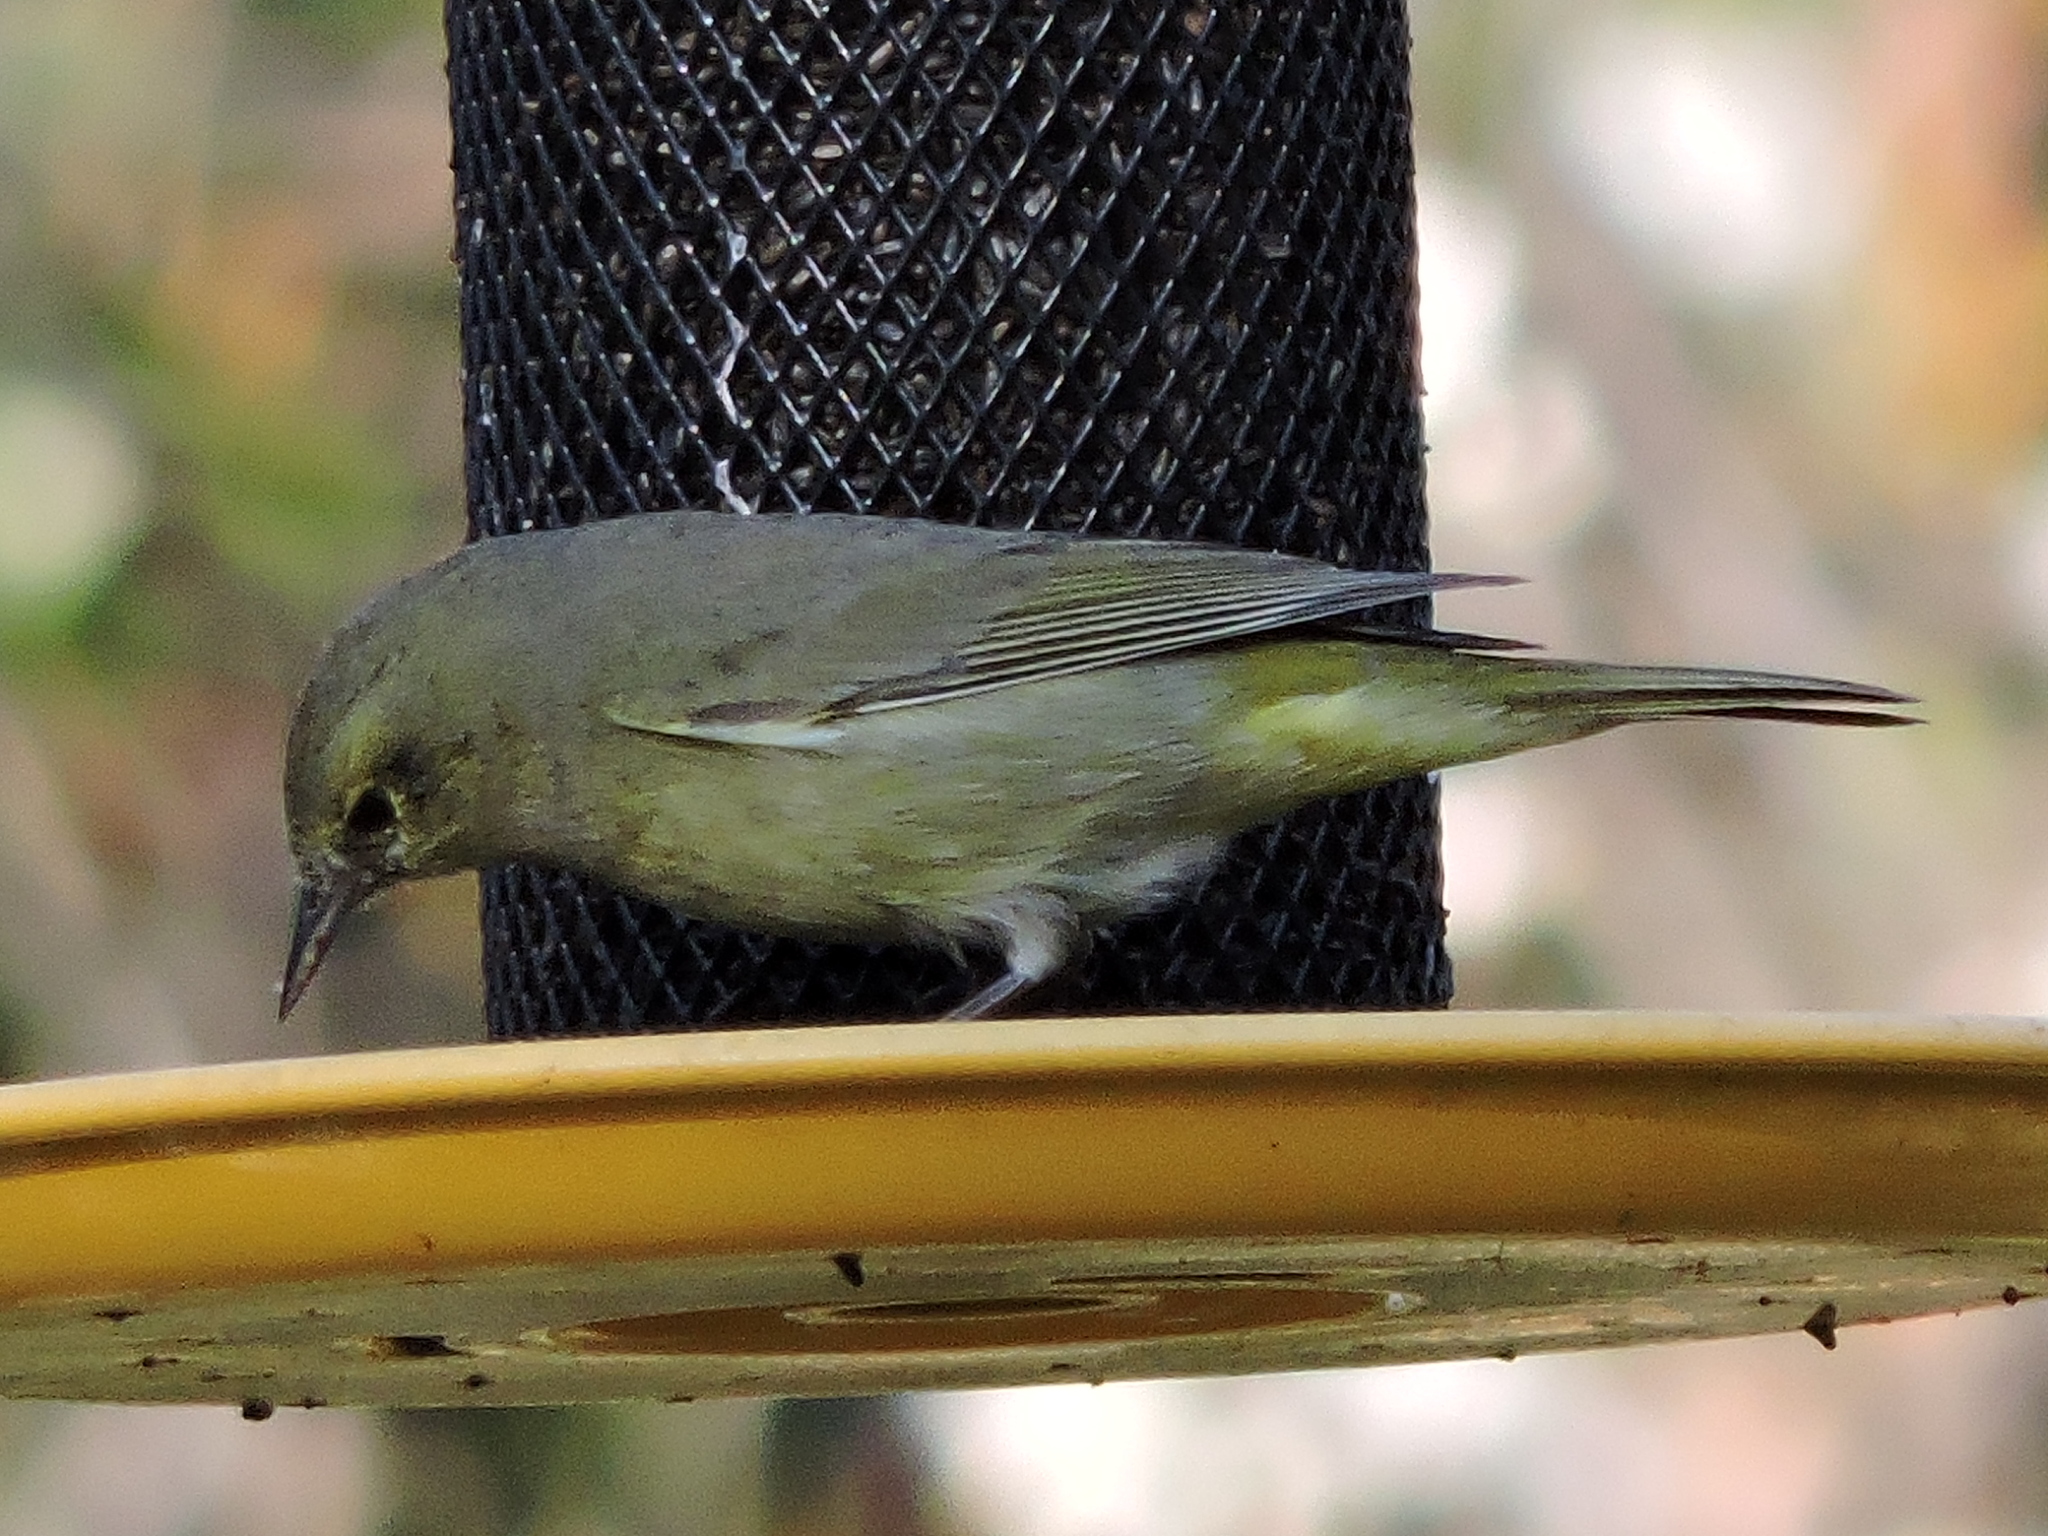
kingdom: Animalia
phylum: Chordata
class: Aves
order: Passeriformes
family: Parulidae
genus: Leiothlypis
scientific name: Leiothlypis celata
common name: Orange-crowned warbler
